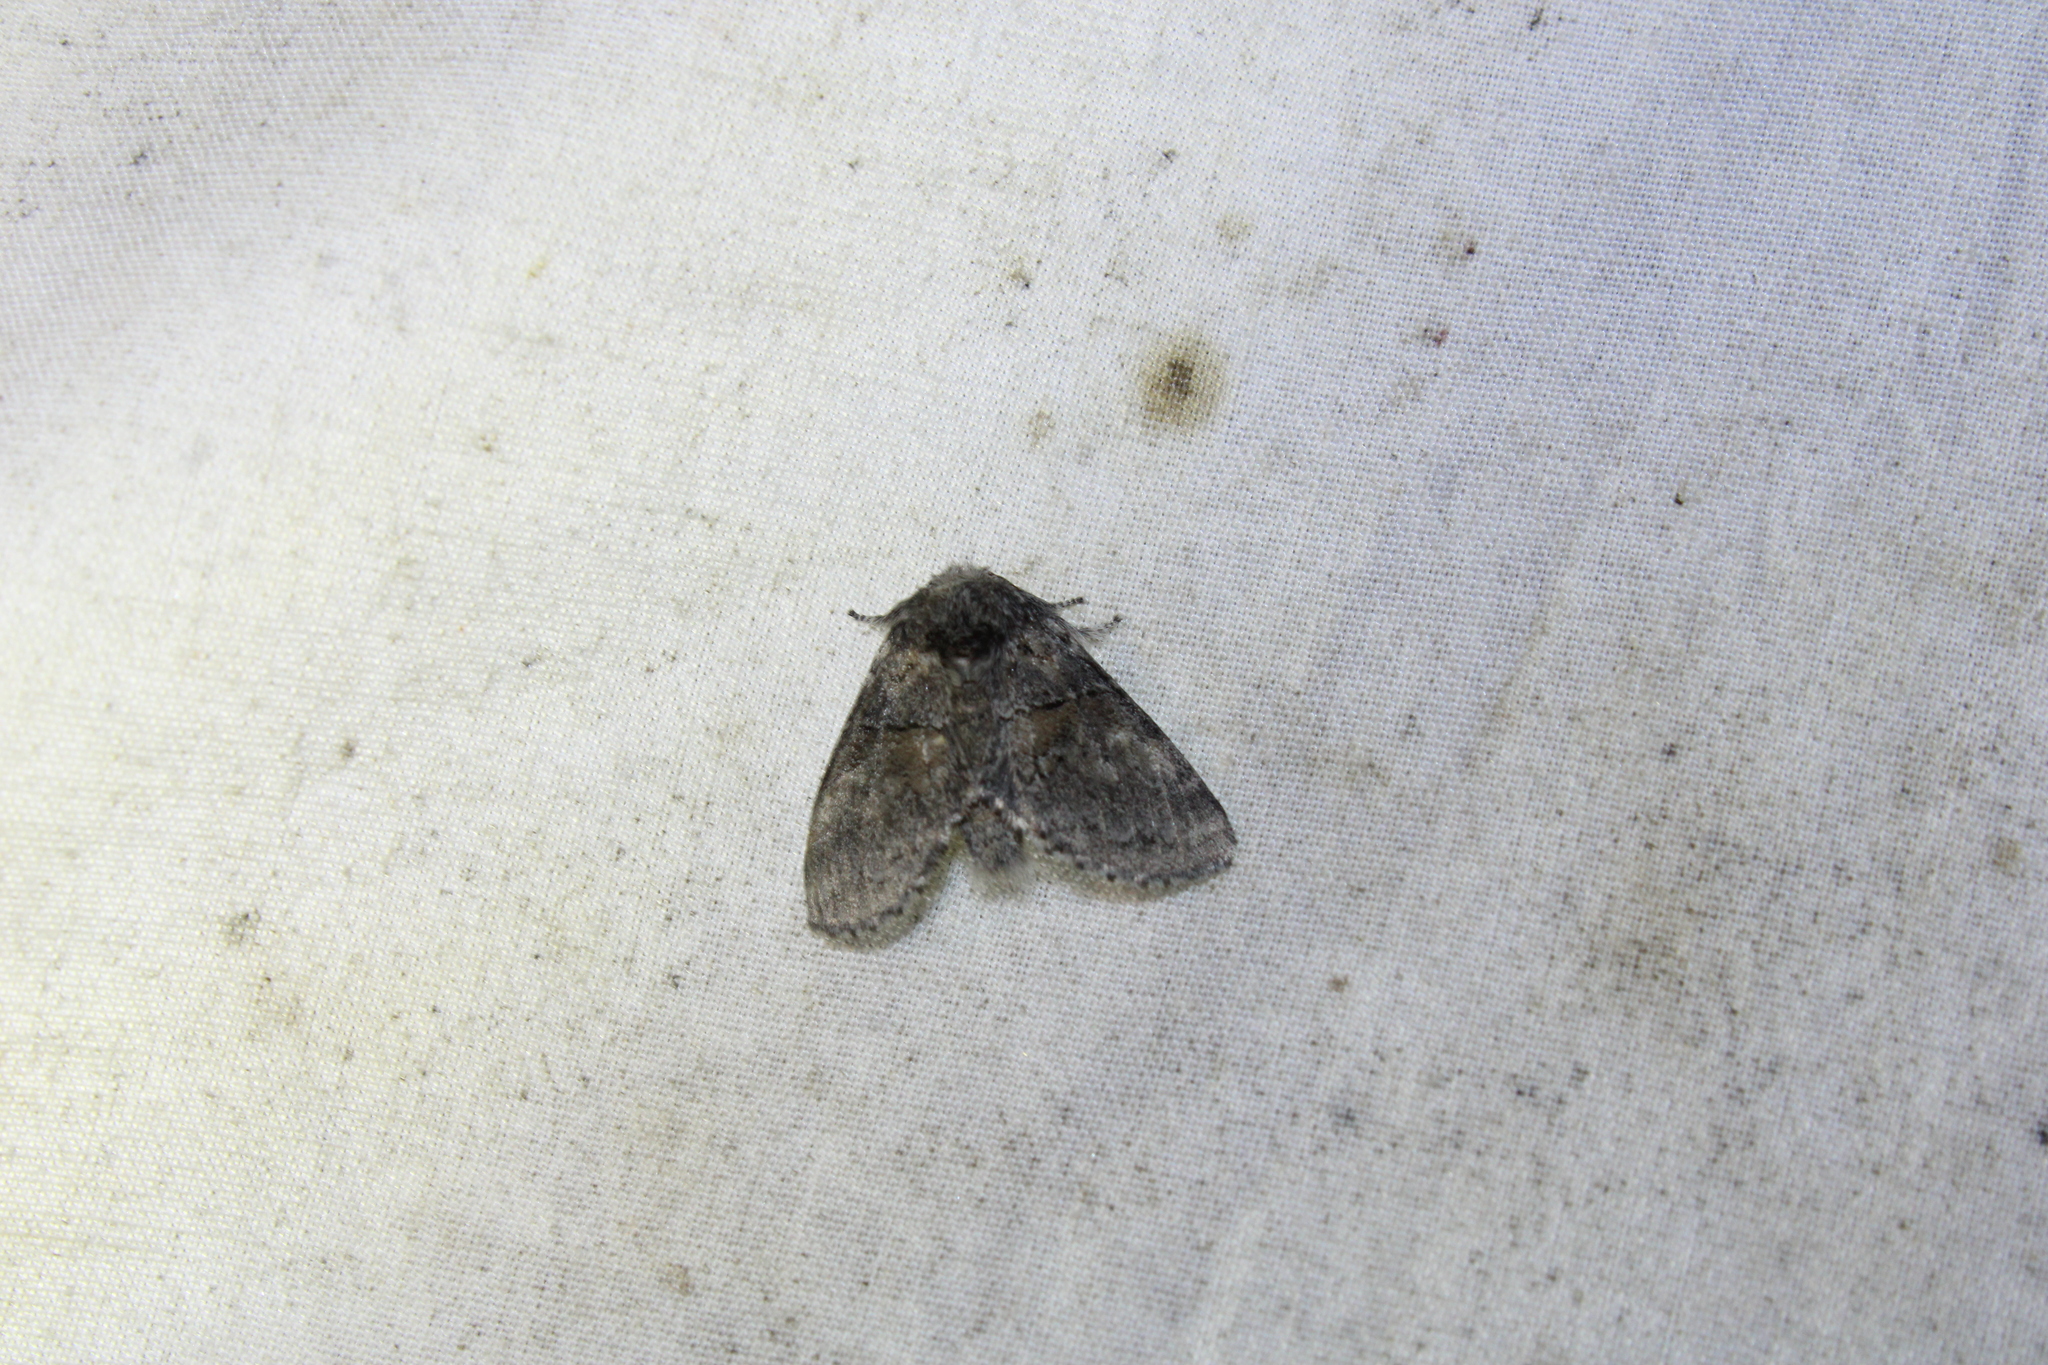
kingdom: Animalia
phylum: Arthropoda
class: Insecta
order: Lepidoptera
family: Notodontidae
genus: Gluphisia
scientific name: Gluphisia septentrionis
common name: Common gluphisia
